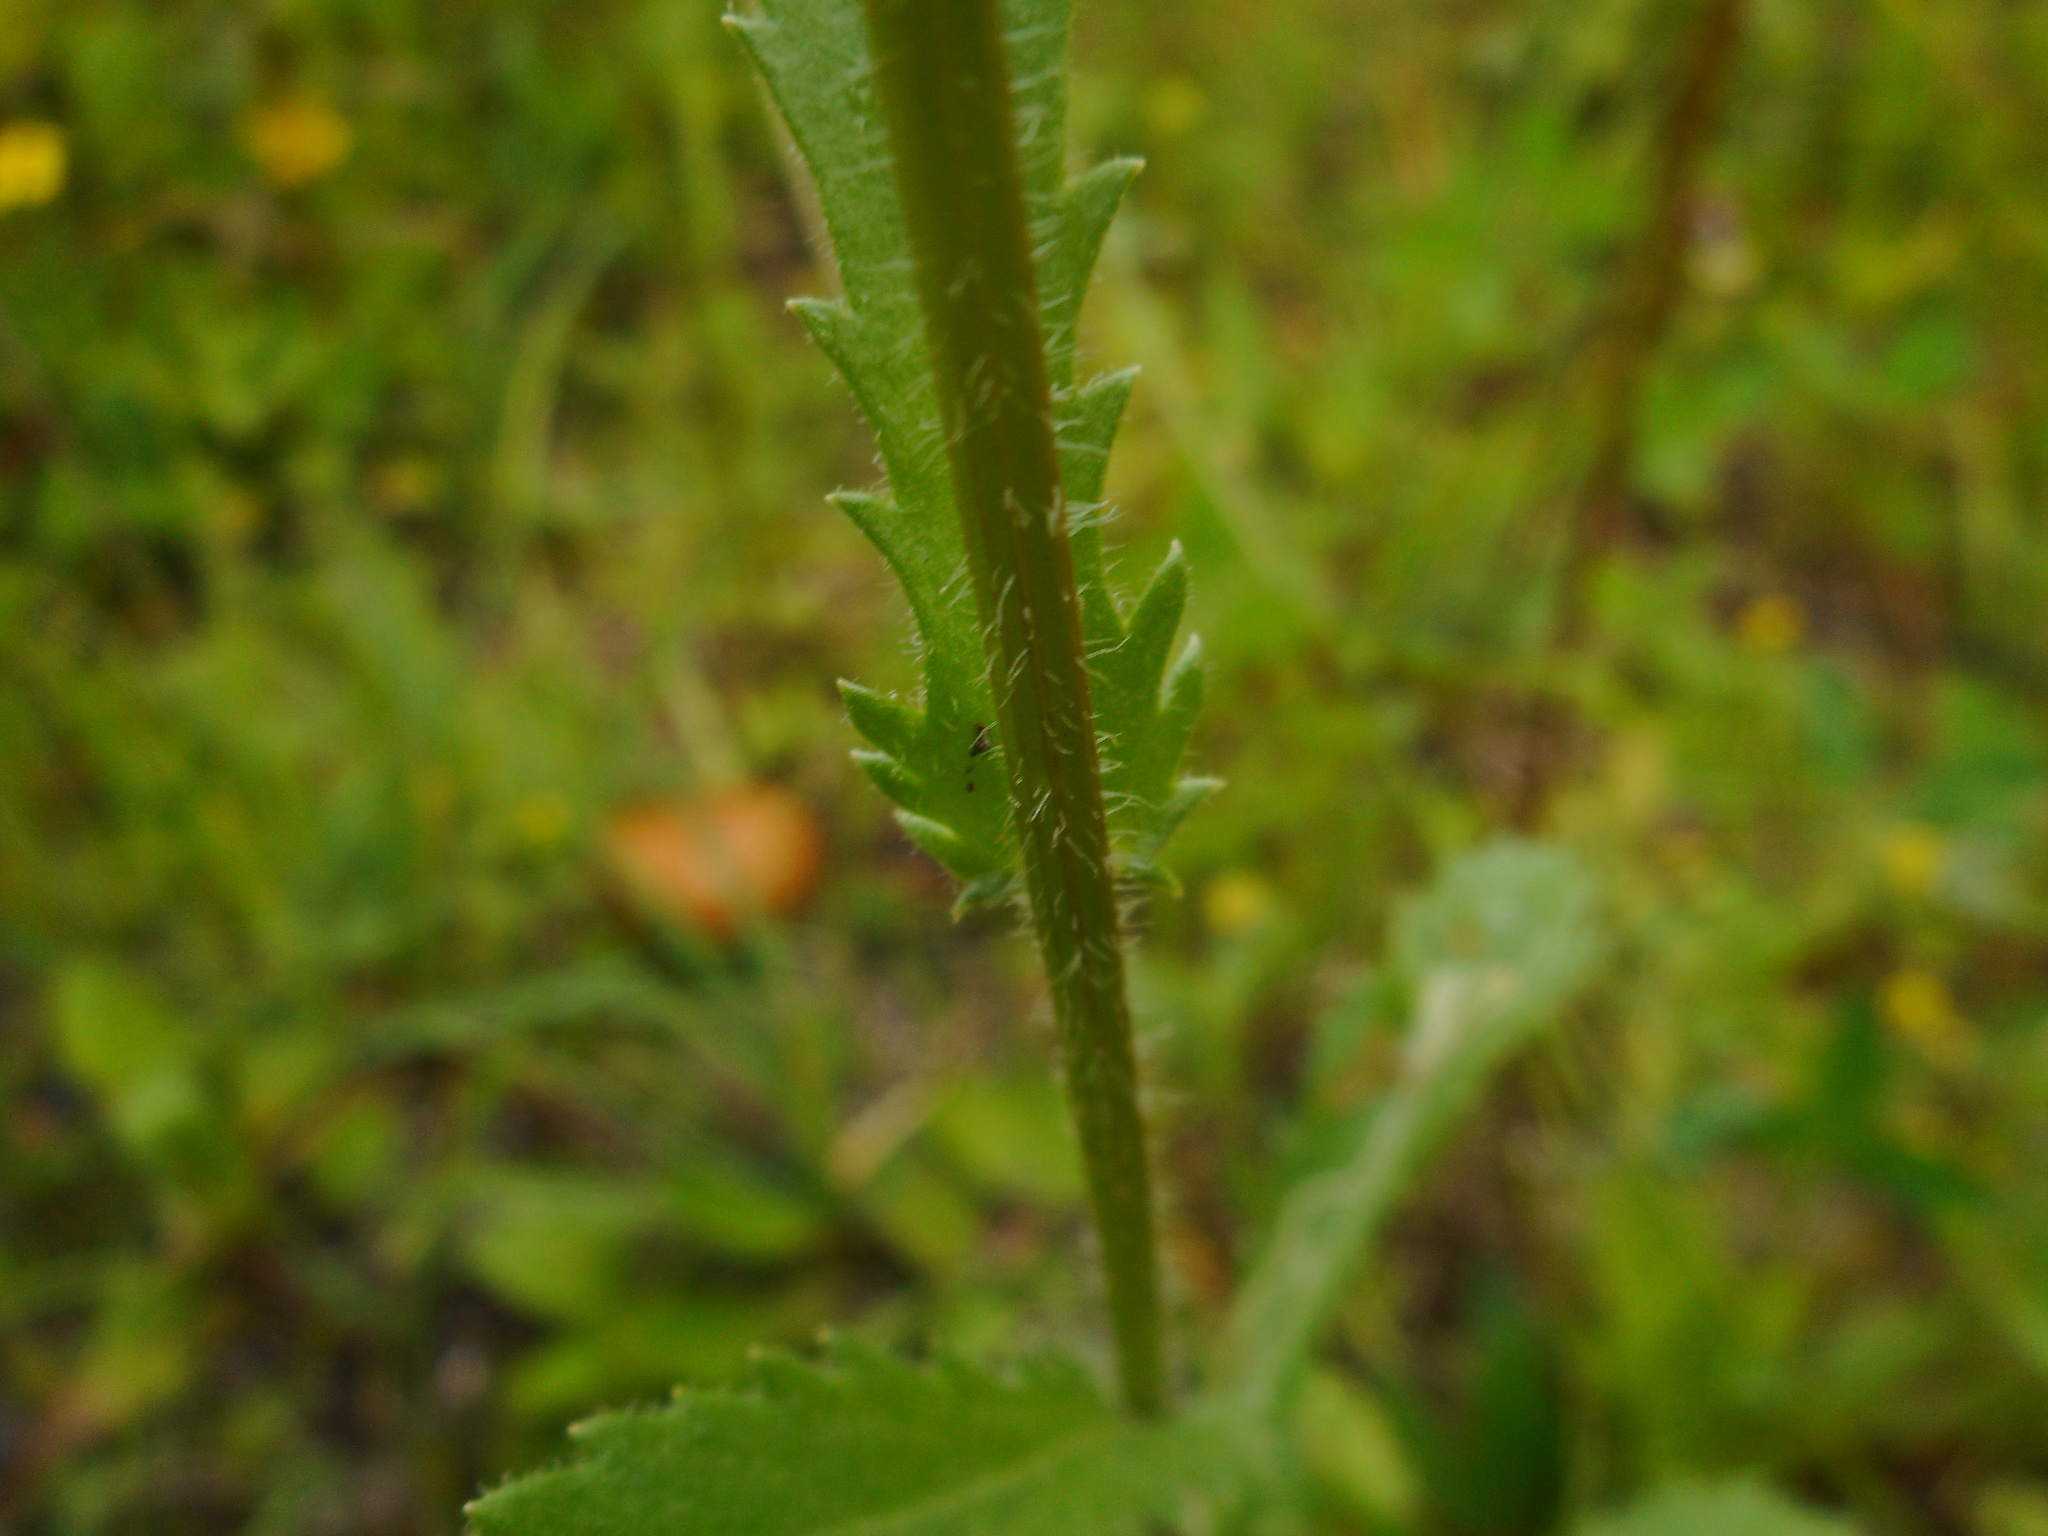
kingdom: Plantae
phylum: Tracheophyta
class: Magnoliopsida
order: Asterales
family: Asteraceae
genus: Leucanthemum
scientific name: Leucanthemum ircutianum
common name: Daisy
